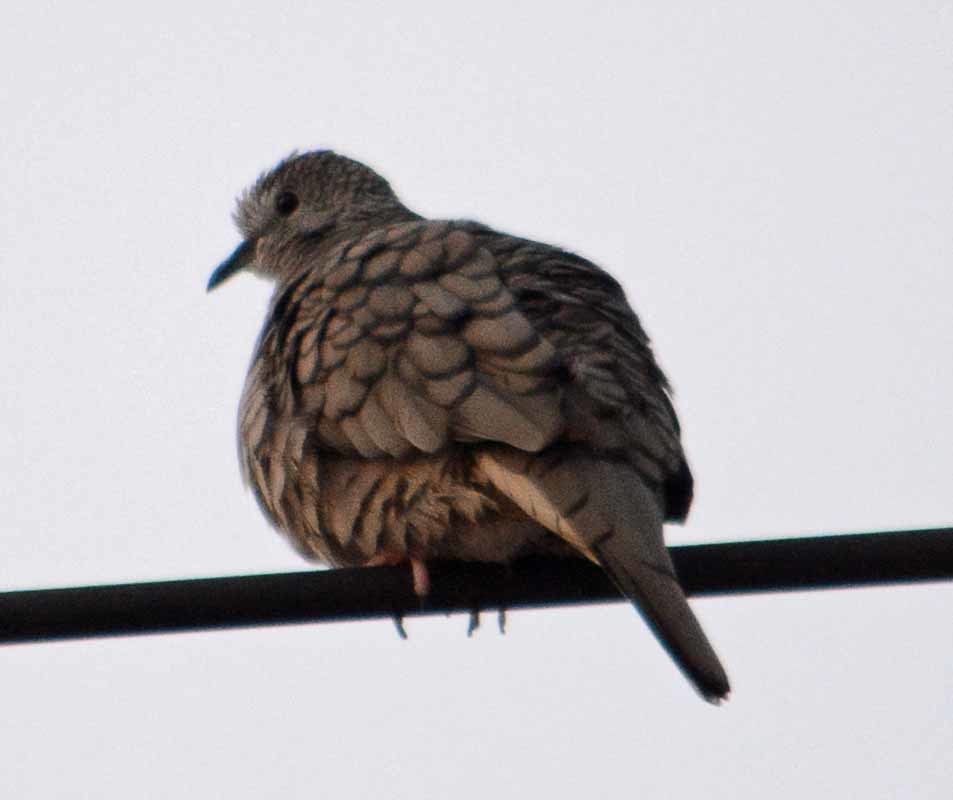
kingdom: Animalia
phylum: Chordata
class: Aves
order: Columbiformes
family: Columbidae
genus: Columbina
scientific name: Columbina inca
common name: Inca dove
